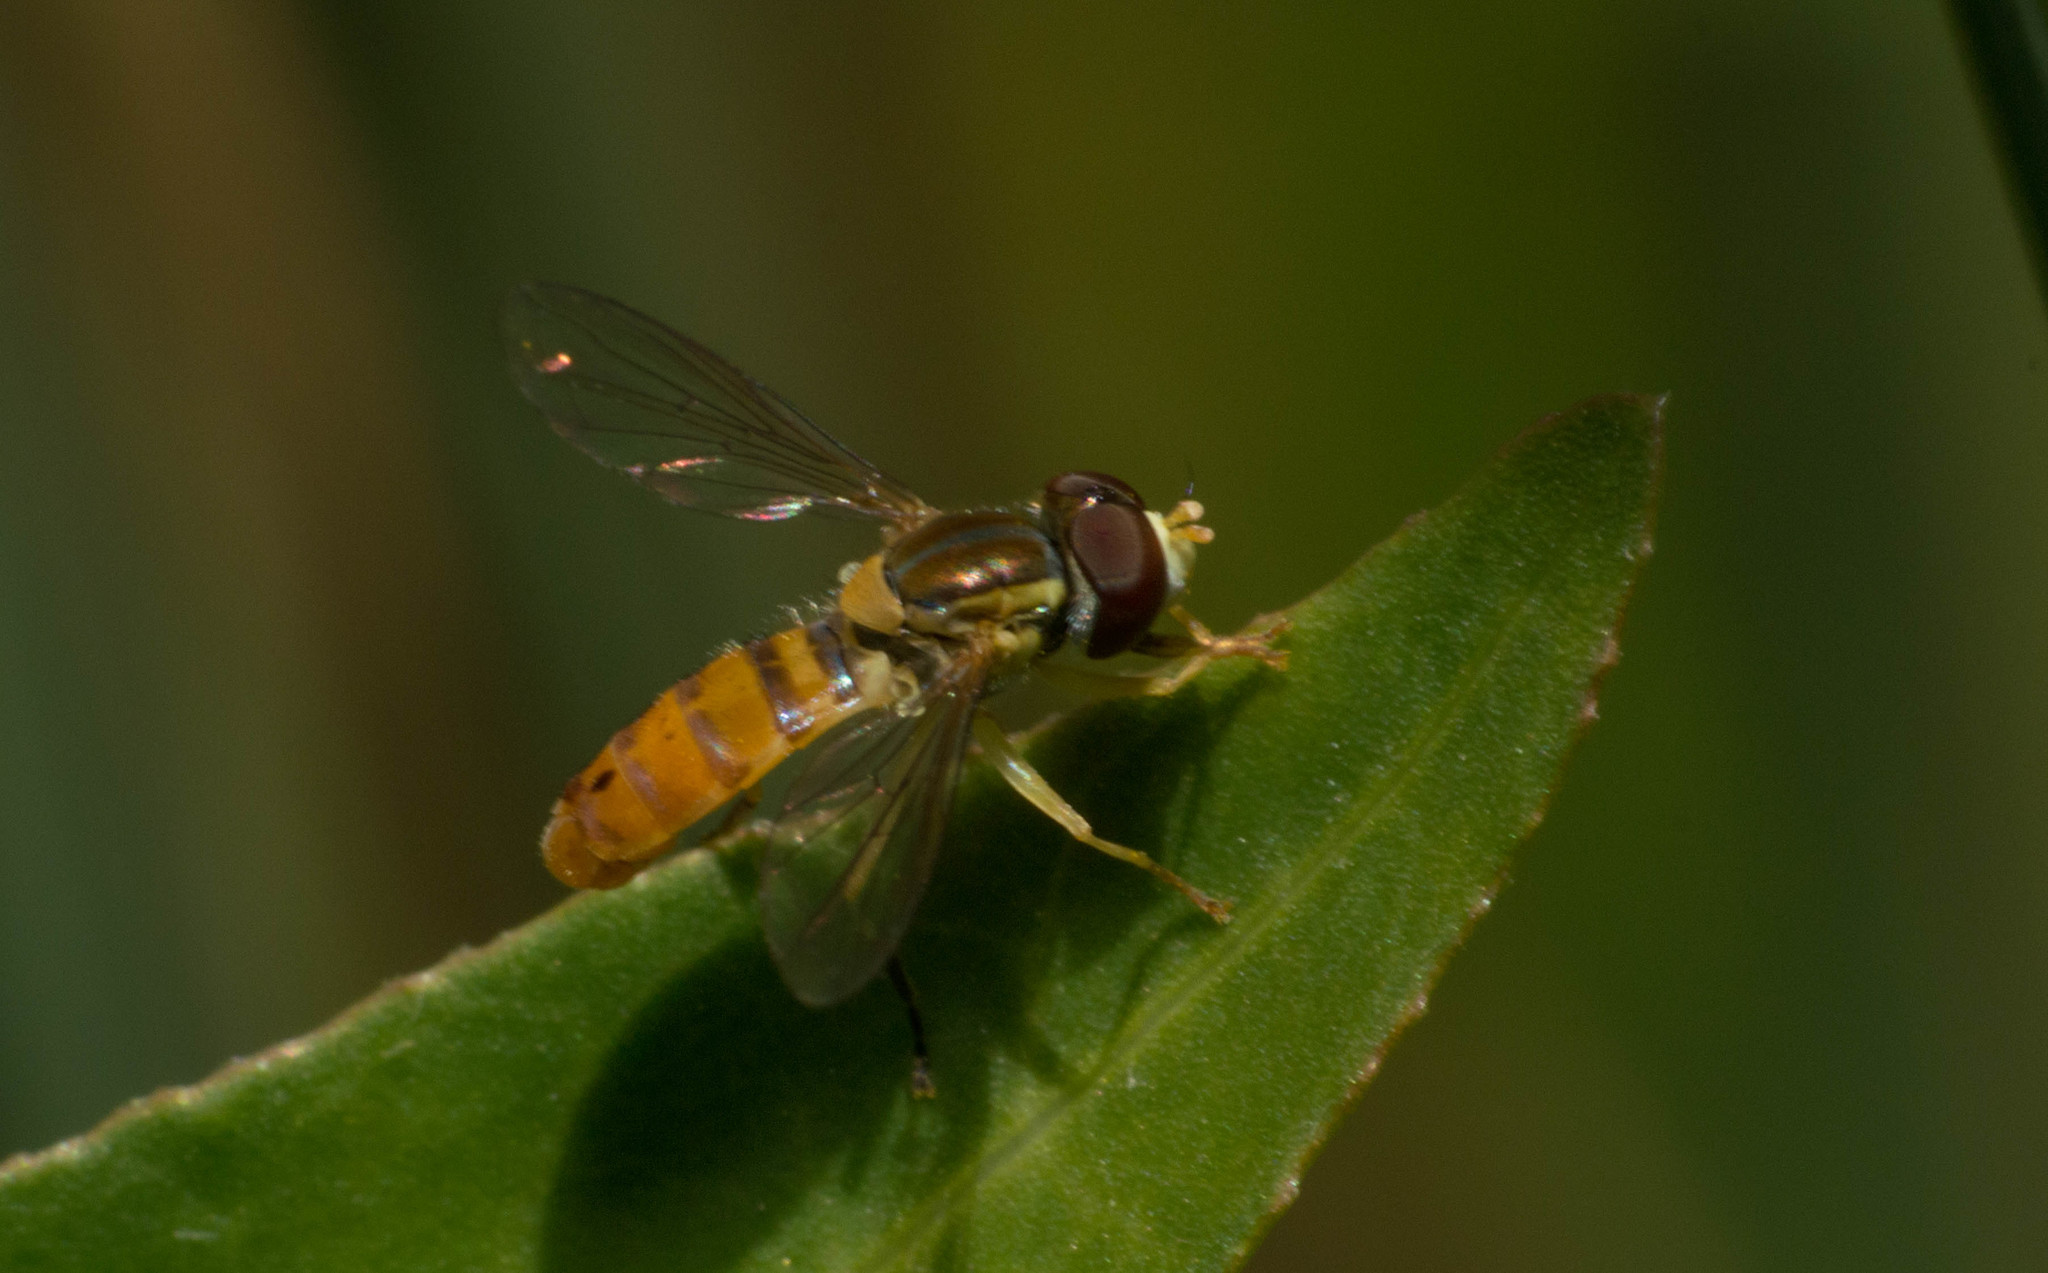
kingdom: Animalia
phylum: Arthropoda
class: Insecta
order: Diptera
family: Syrphidae
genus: Toxomerus
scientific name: Toxomerus
